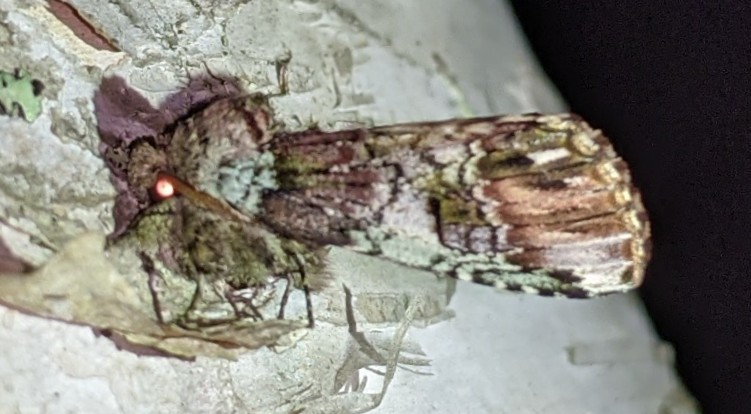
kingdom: Animalia
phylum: Arthropoda
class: Insecta
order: Lepidoptera
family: Notodontidae
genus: Schizura
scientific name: Schizura
